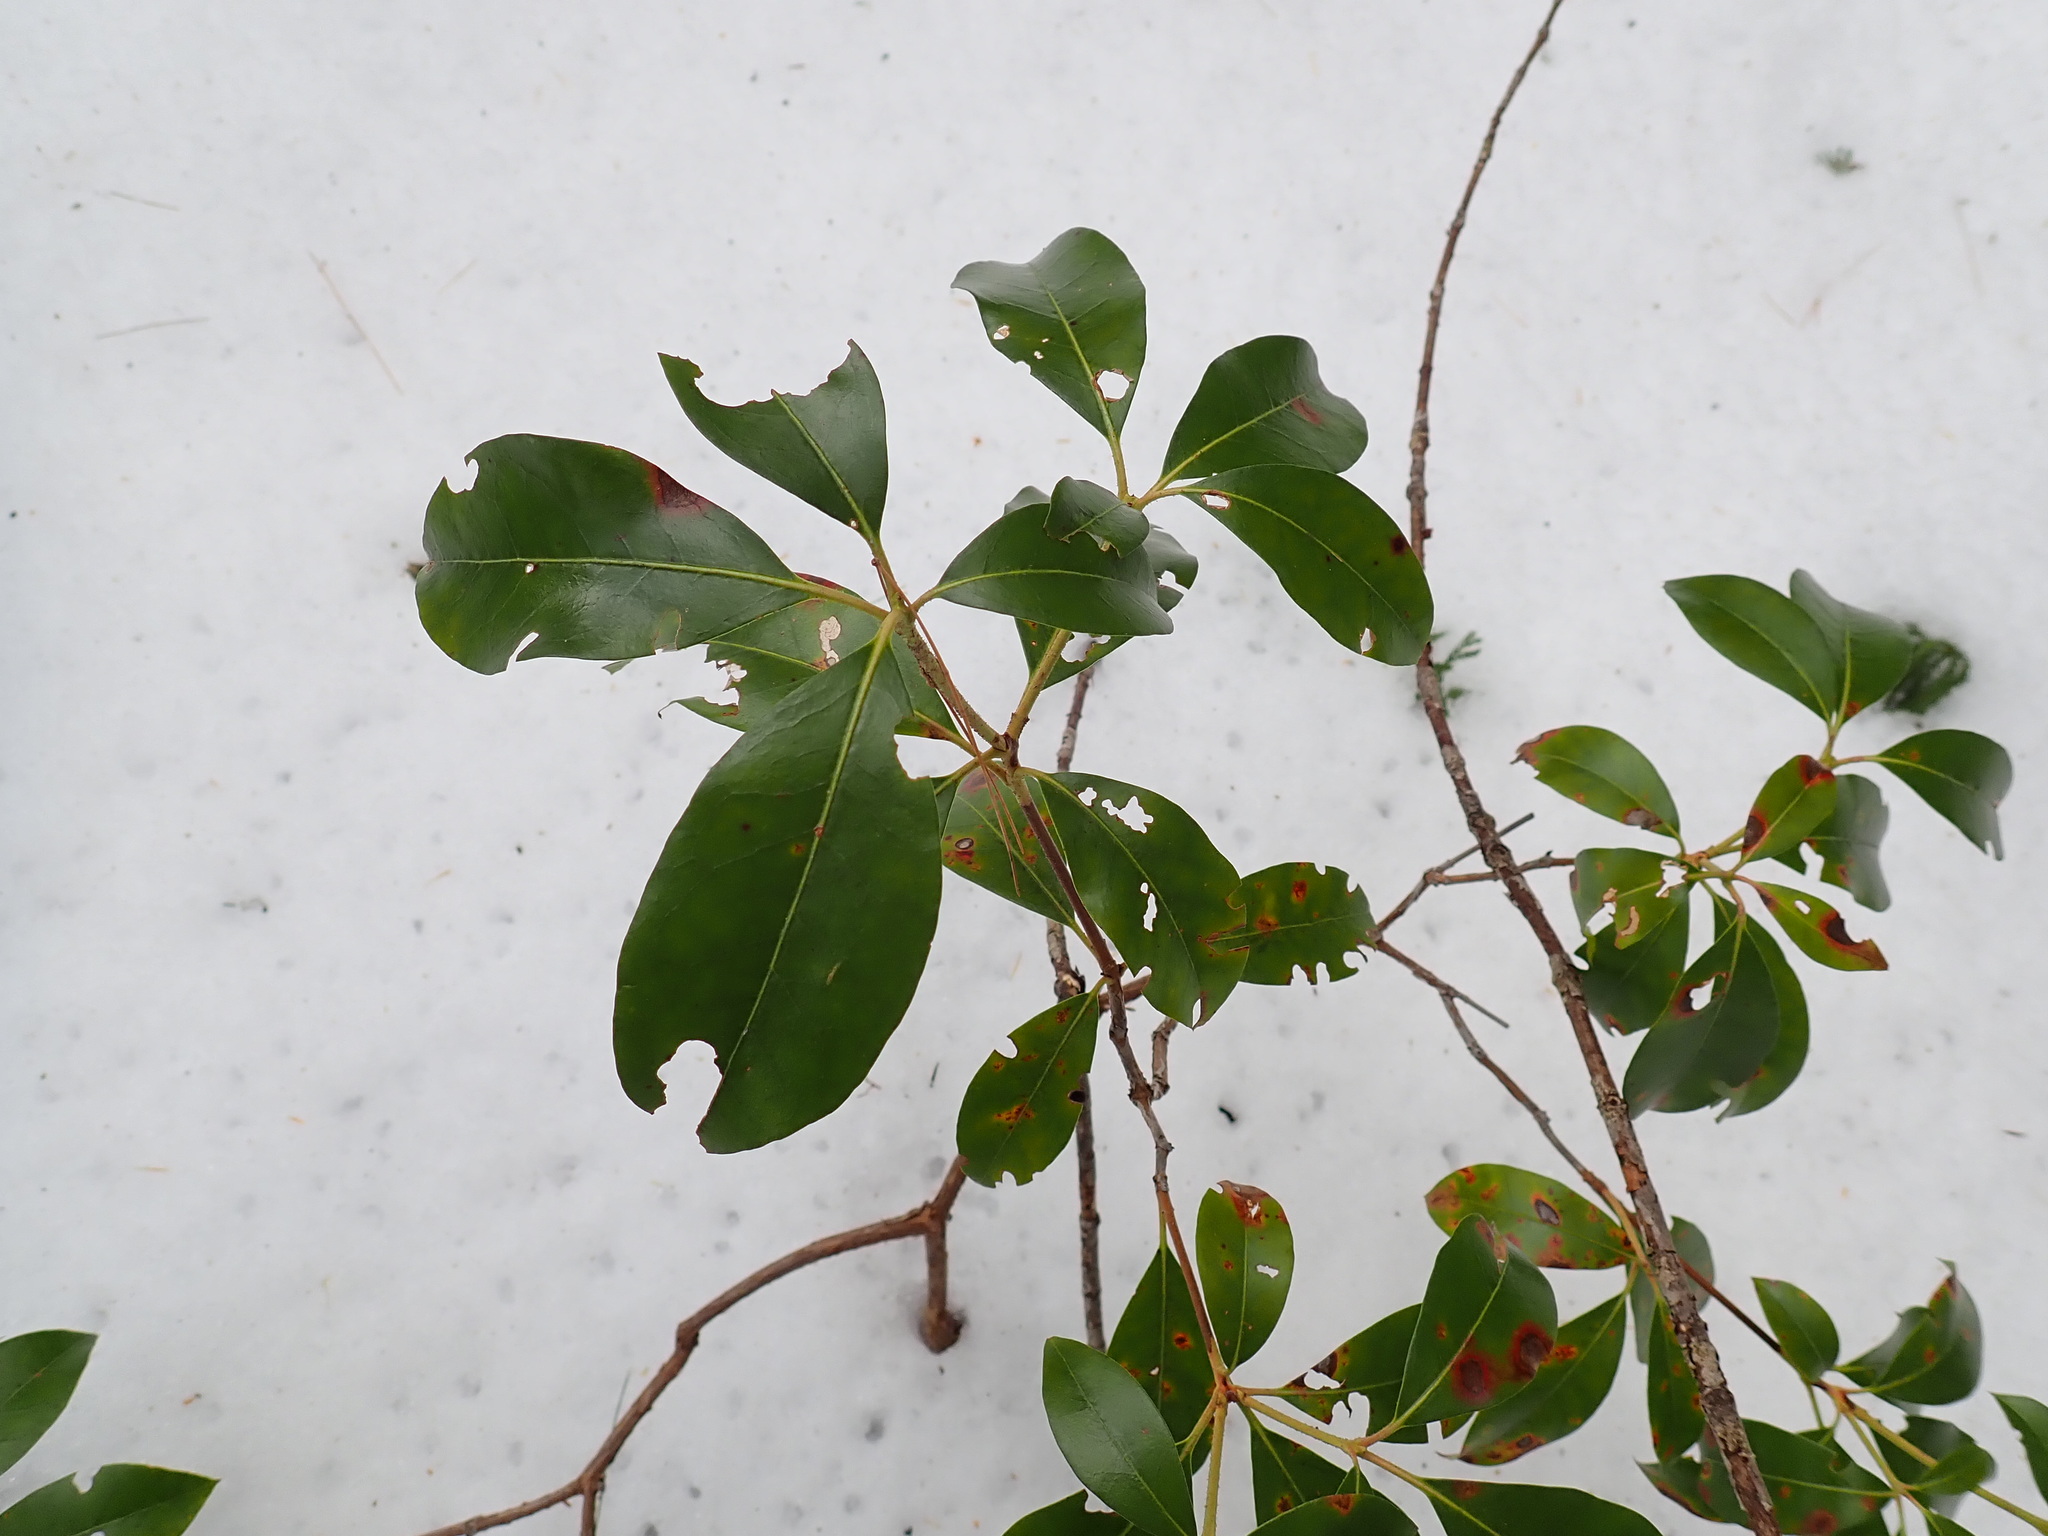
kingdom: Plantae
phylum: Tracheophyta
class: Magnoliopsida
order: Ericales
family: Ericaceae
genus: Kalmia
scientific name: Kalmia latifolia
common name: Mountain-laurel
